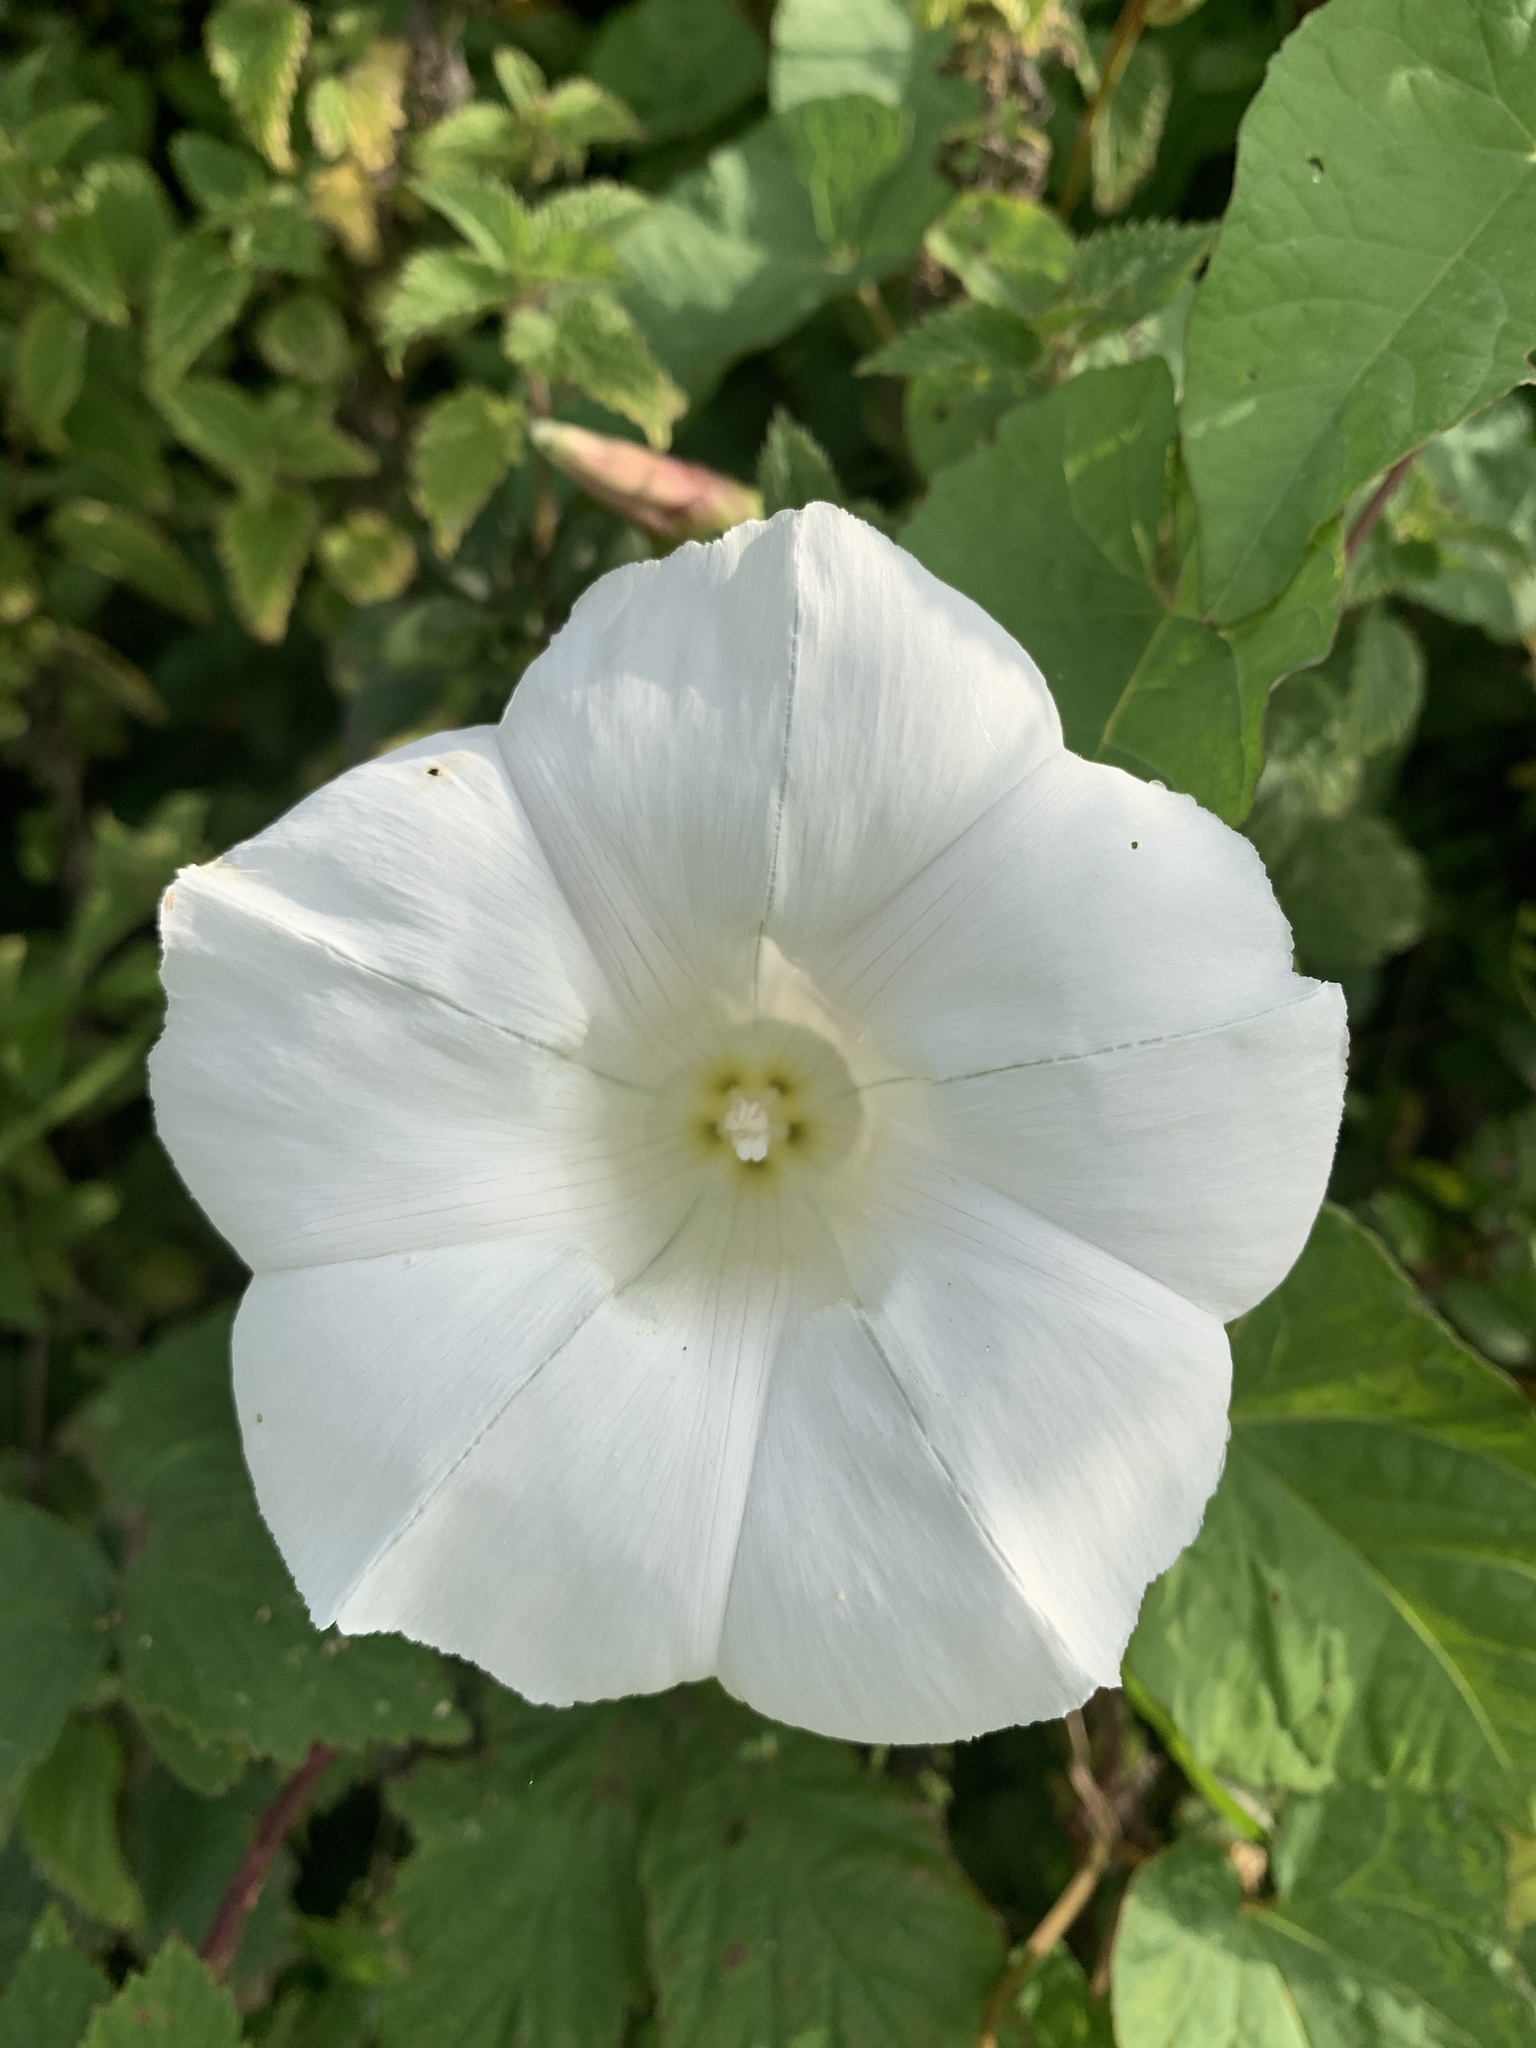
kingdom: Plantae
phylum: Tracheophyta
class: Magnoliopsida
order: Solanales
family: Convolvulaceae
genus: Calystegia
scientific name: Calystegia silvatica
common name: Large bindweed
